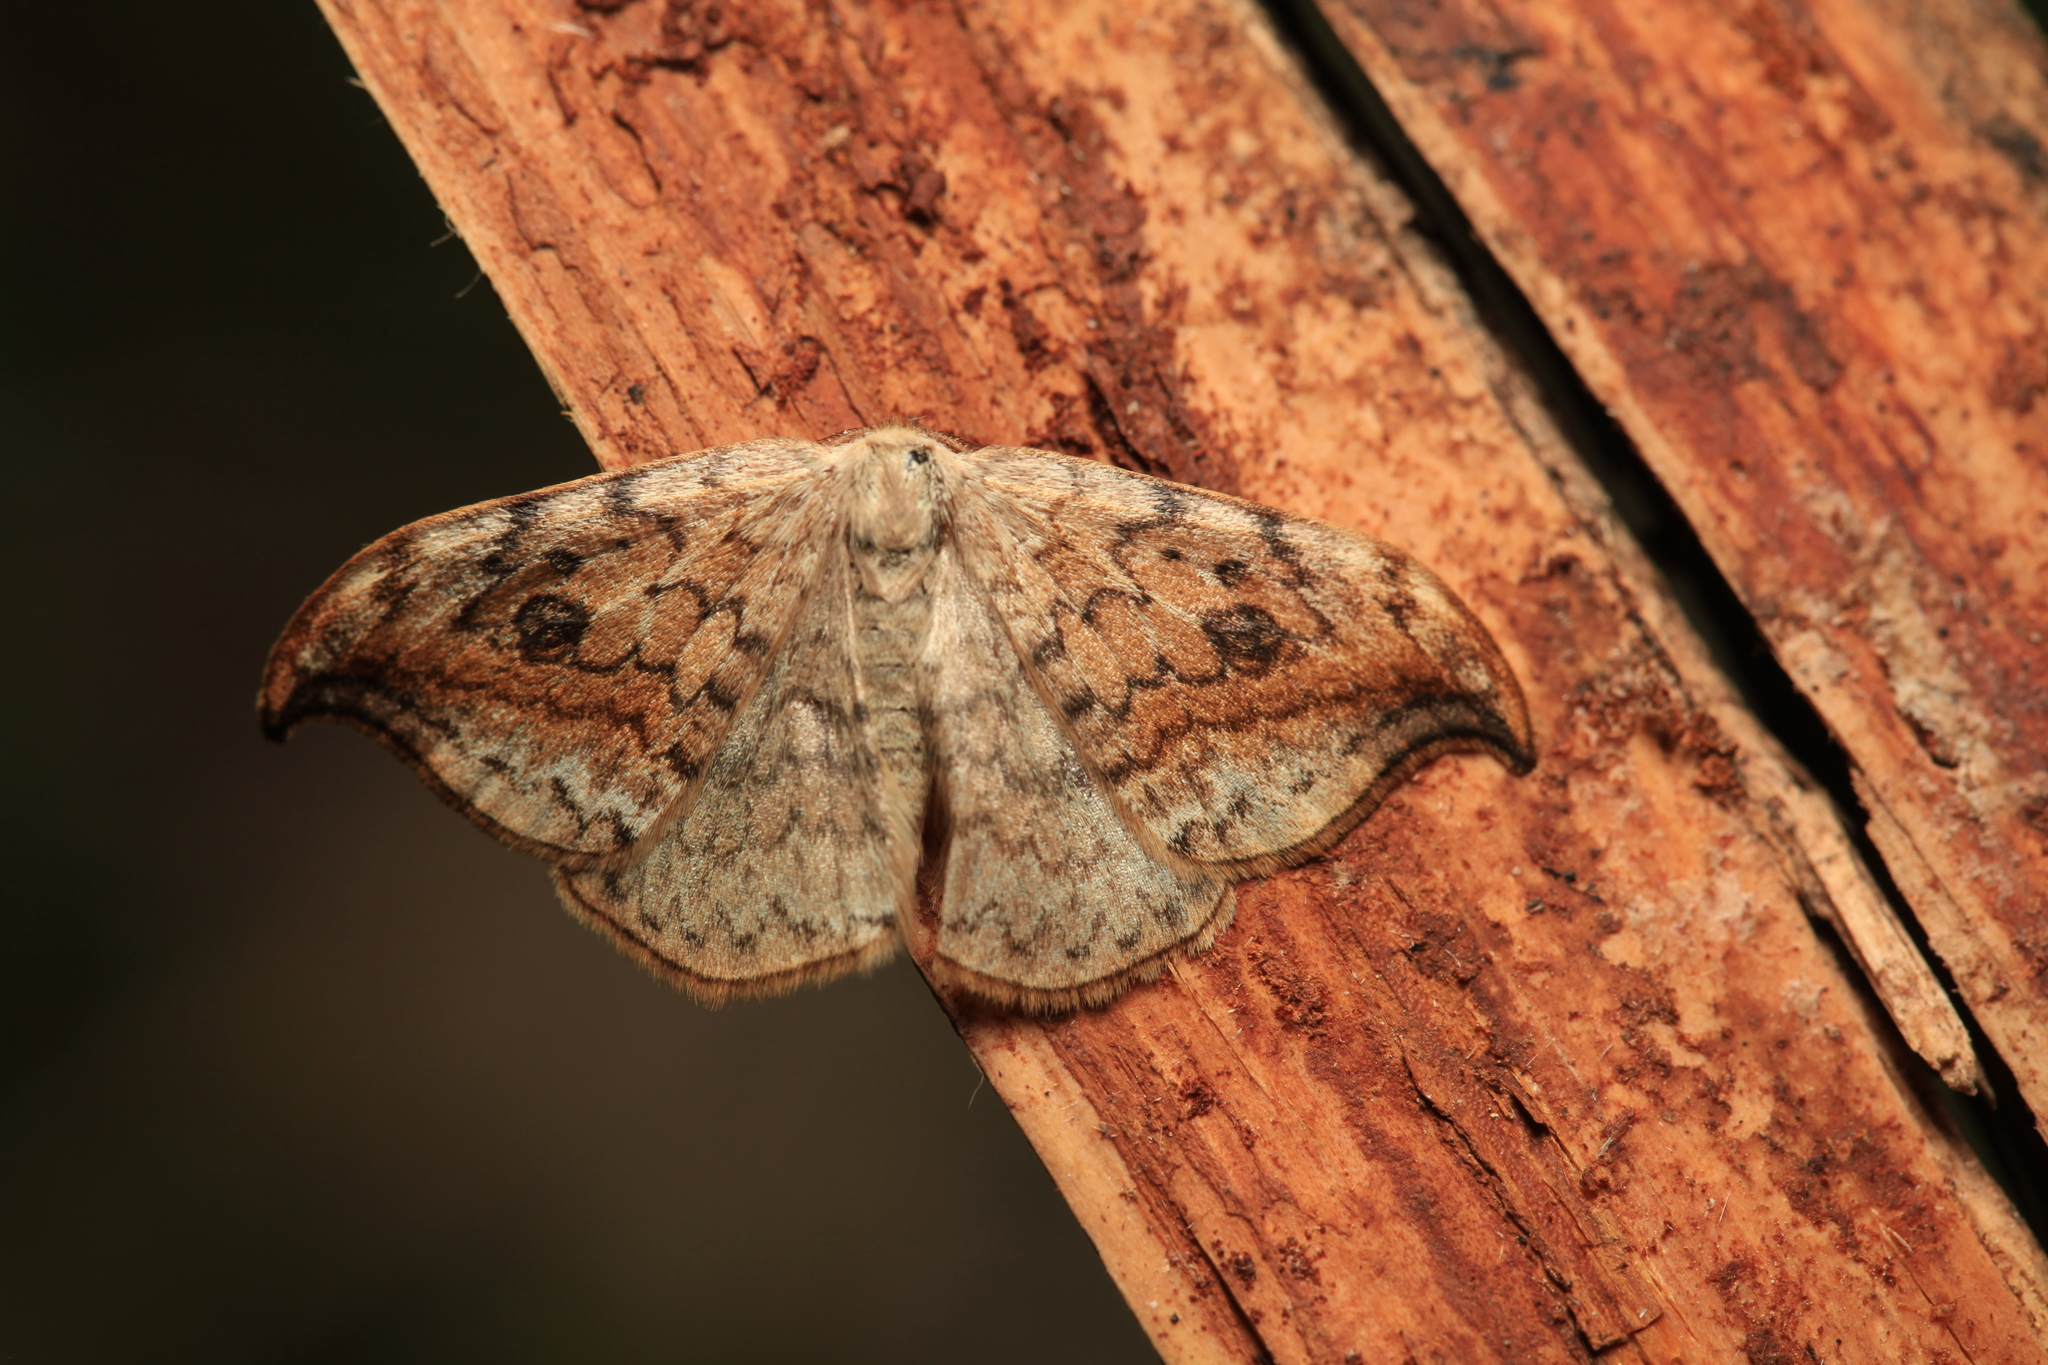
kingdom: Animalia
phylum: Arthropoda
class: Insecta
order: Lepidoptera
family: Drepanidae
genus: Drepana
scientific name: Drepana falcataria
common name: Pebble hook-tip
